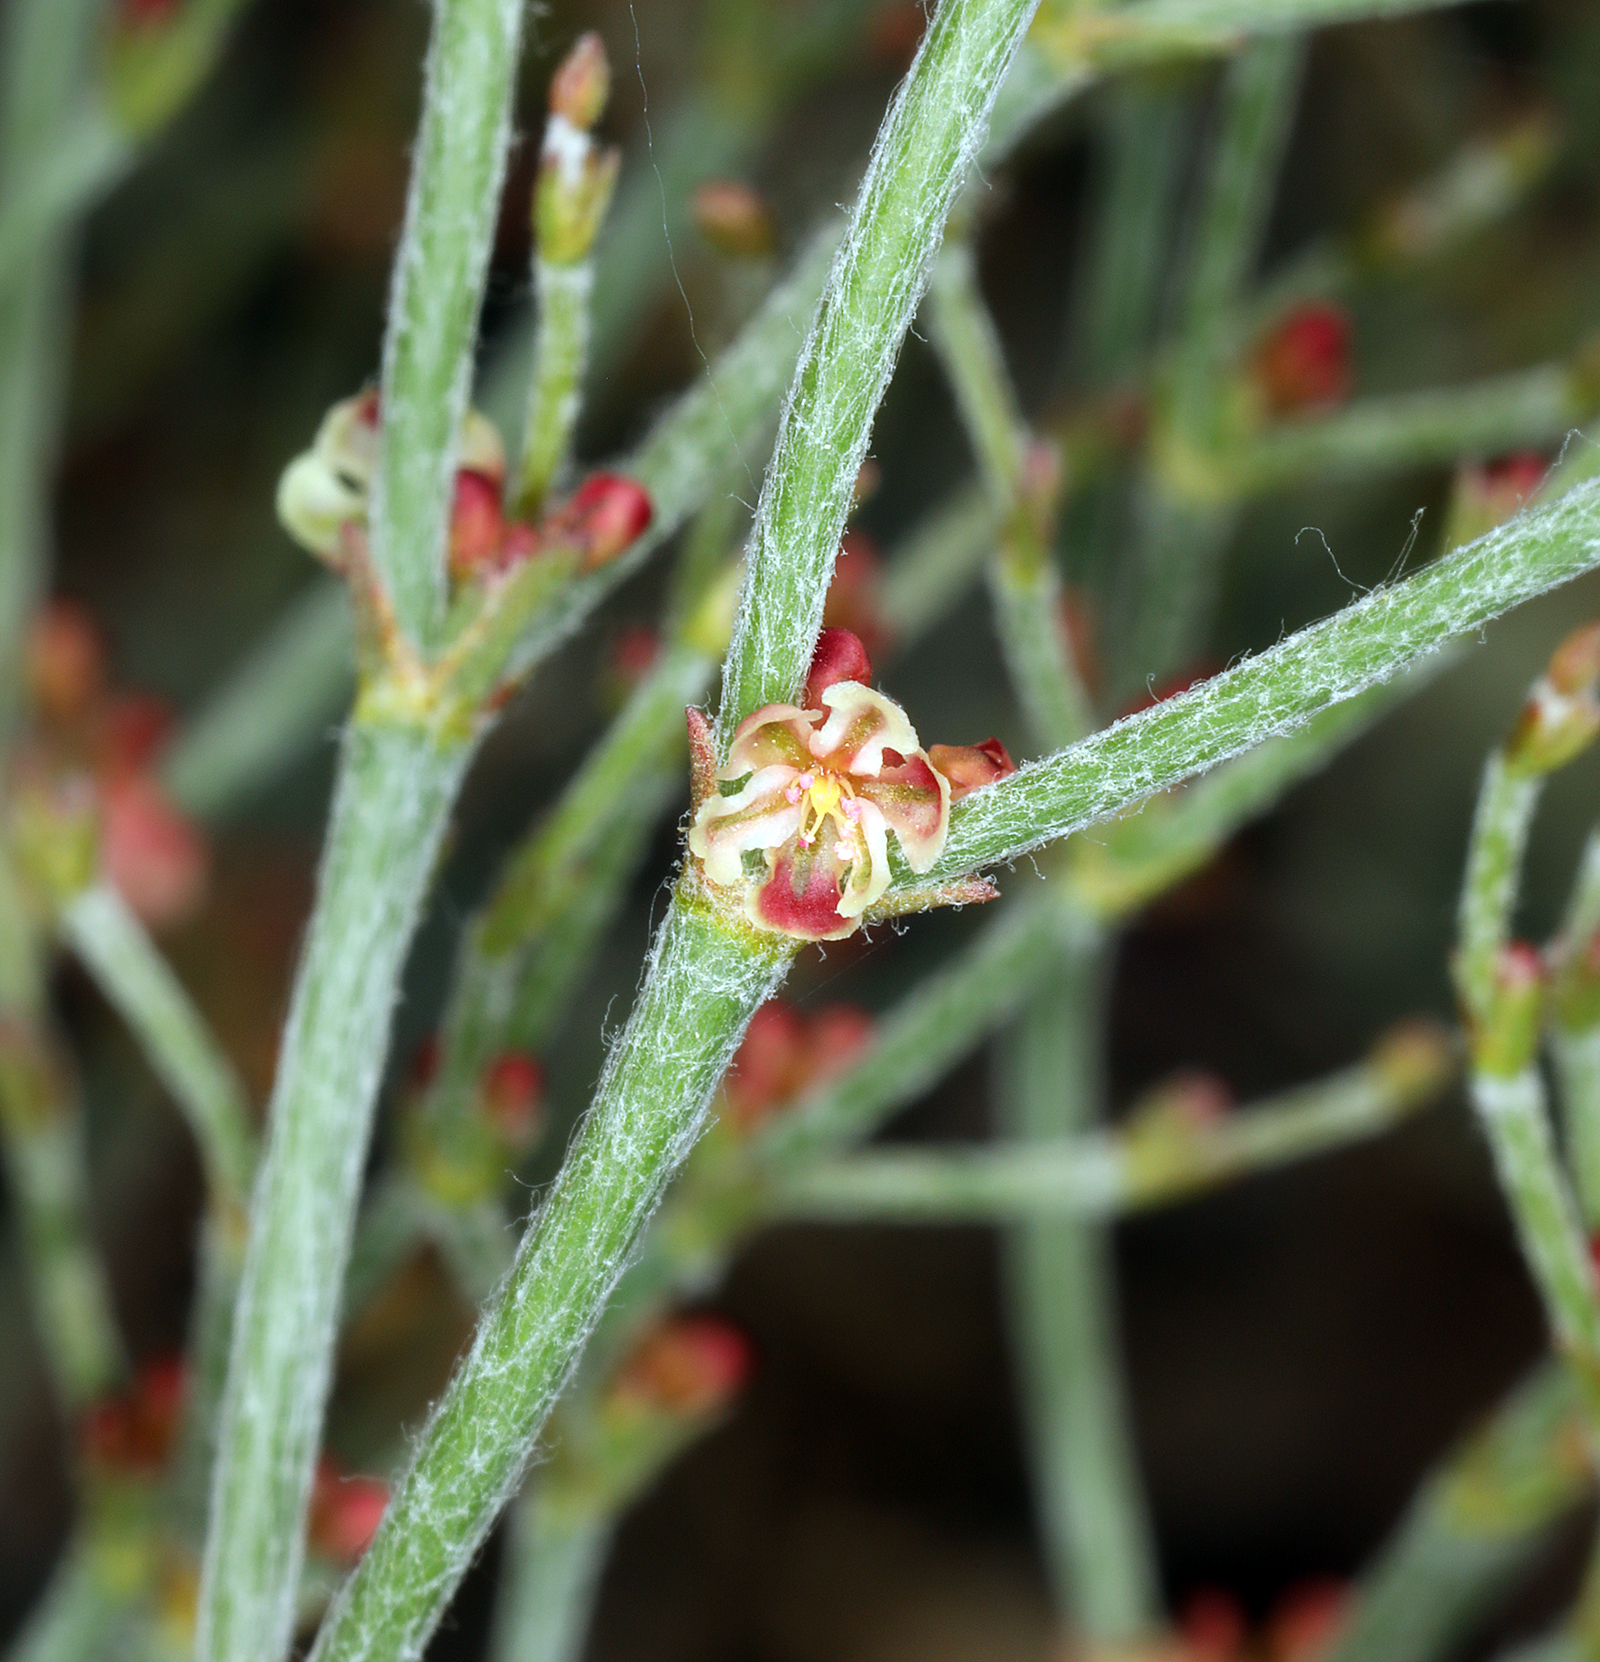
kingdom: Plantae
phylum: Tracheophyta
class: Magnoliopsida
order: Caryophyllales
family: Polygonaceae
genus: Eriogonum
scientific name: Eriogonum nidularium
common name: Bird's-nest wild buckwheat
